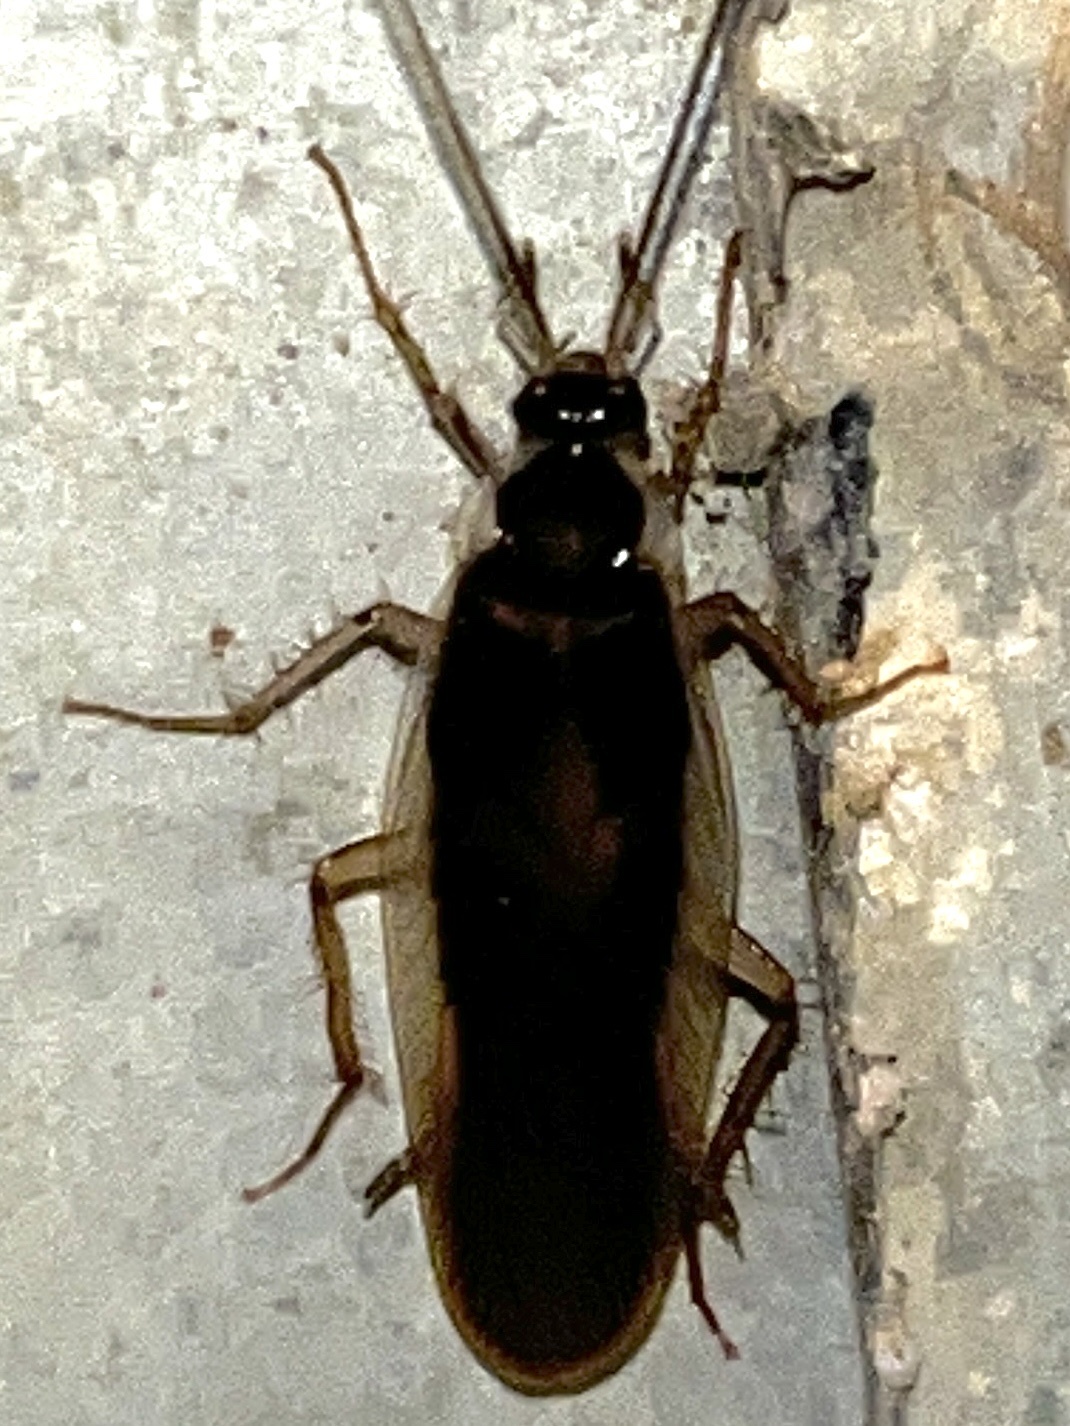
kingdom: Animalia
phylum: Arthropoda
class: Insecta
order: Blattodea
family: Ectobiidae
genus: Supella
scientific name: Supella dimidiata
